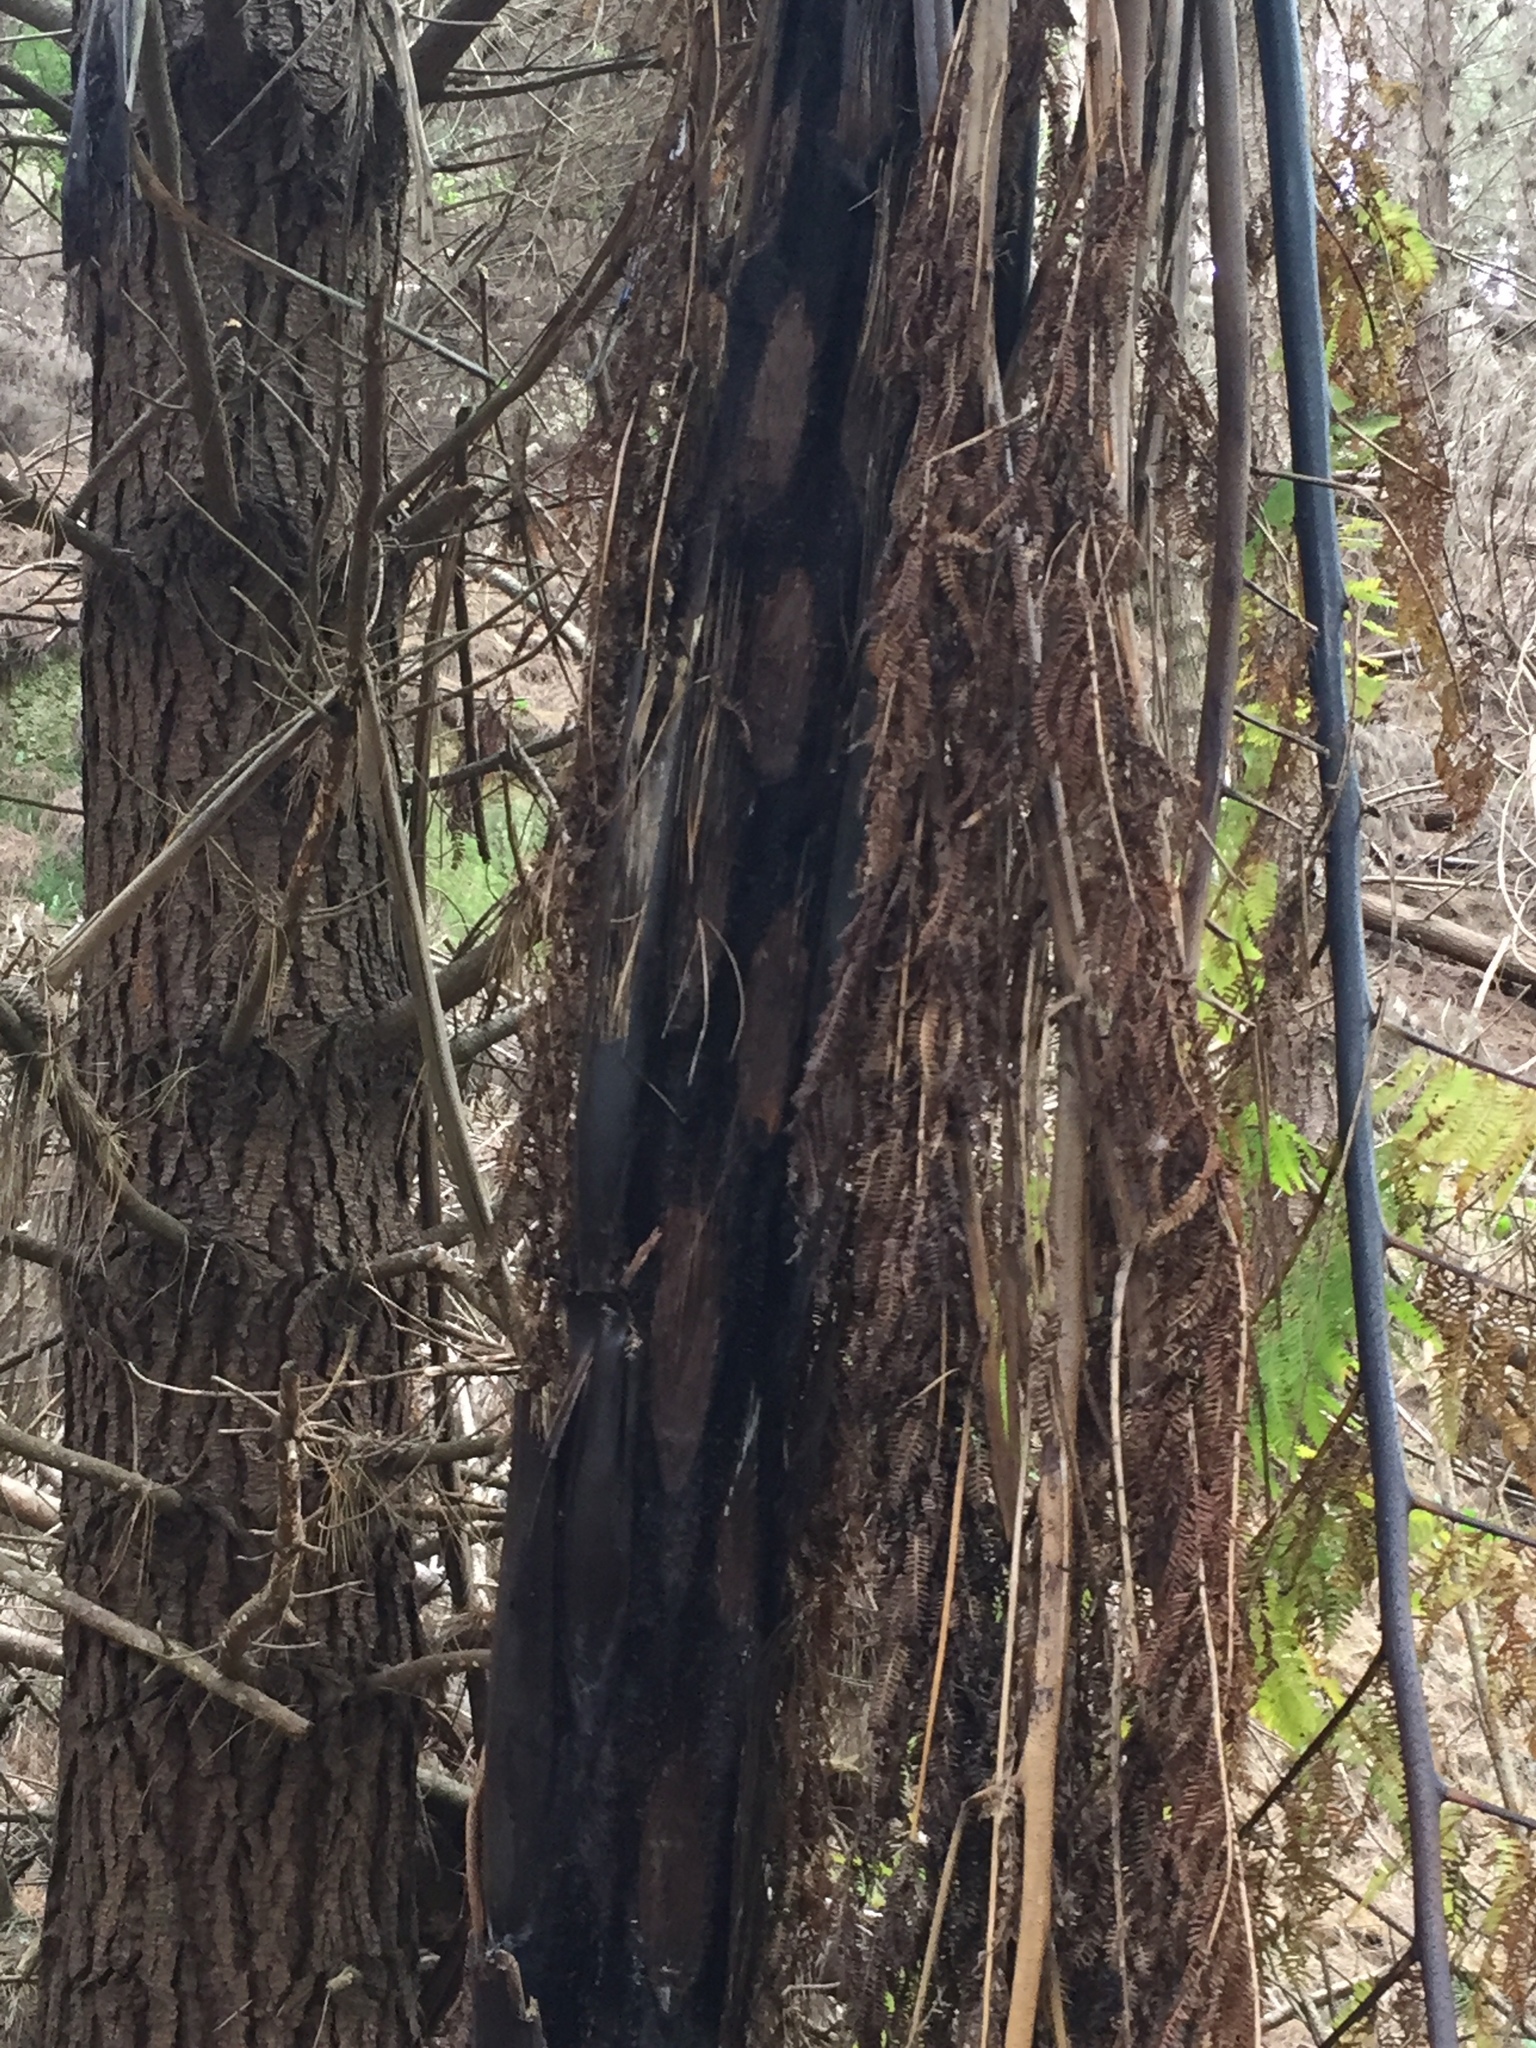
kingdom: Plantae
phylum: Tracheophyta
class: Polypodiopsida
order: Cyatheales
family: Cyatheaceae
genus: Sphaeropteris
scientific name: Sphaeropteris medullaris
